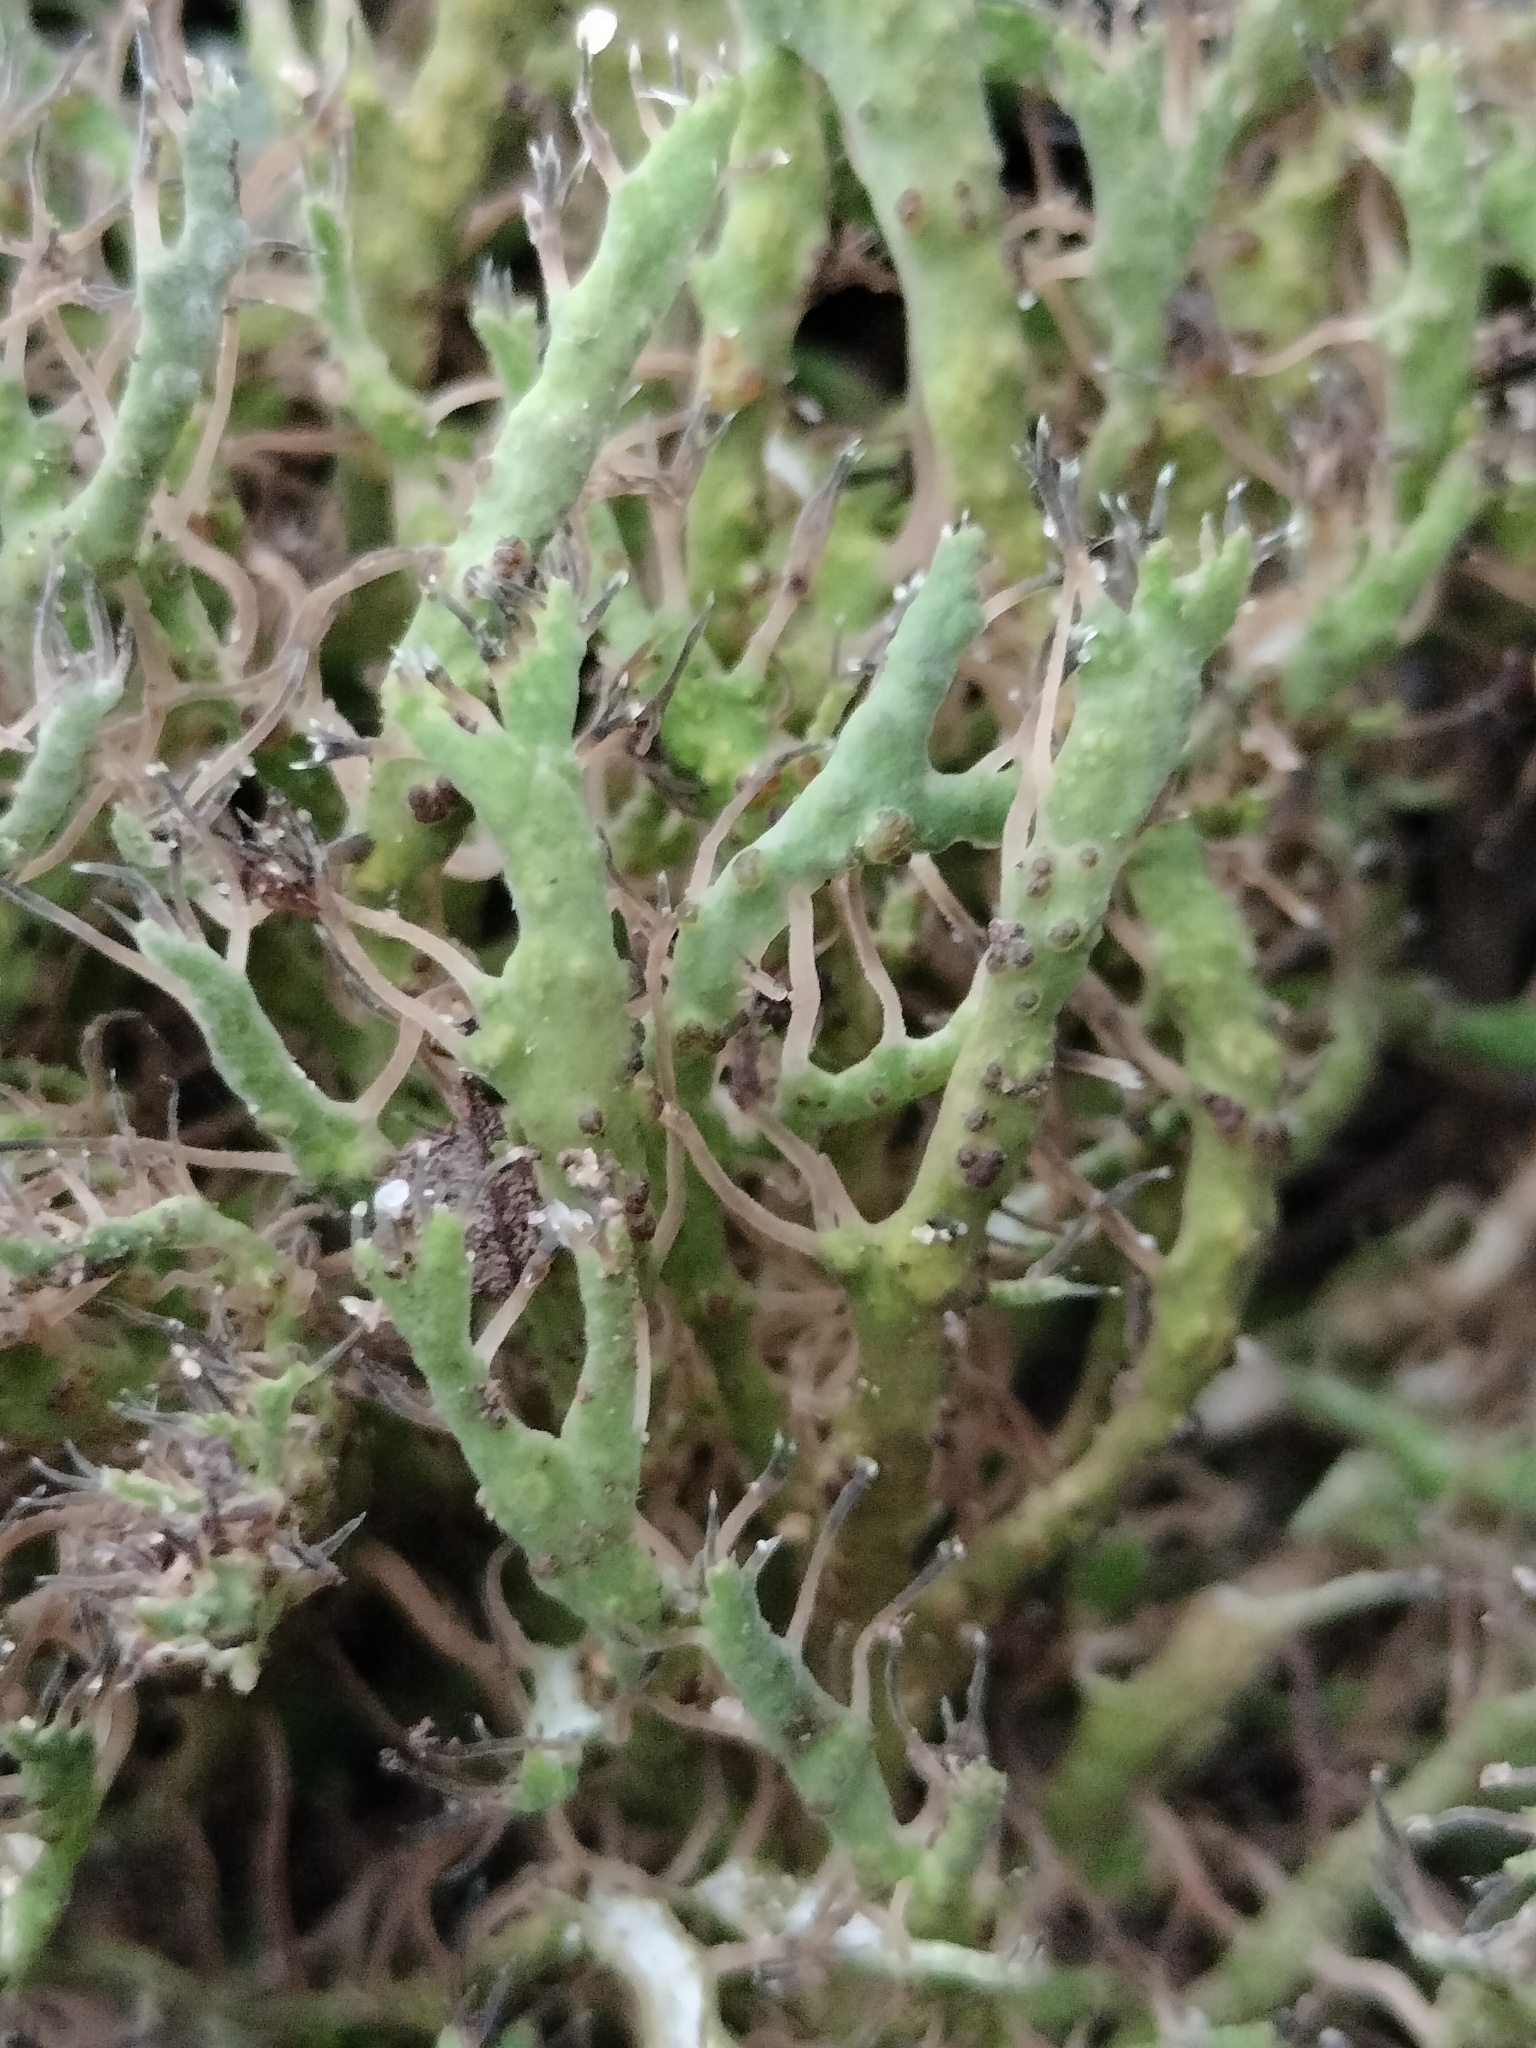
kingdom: Fungi
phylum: Ascomycota
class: Lecanoromycetes
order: Caliciales
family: Physciaceae
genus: Anaptychia
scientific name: Anaptychia ciliaris
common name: Great ciliated lichen
